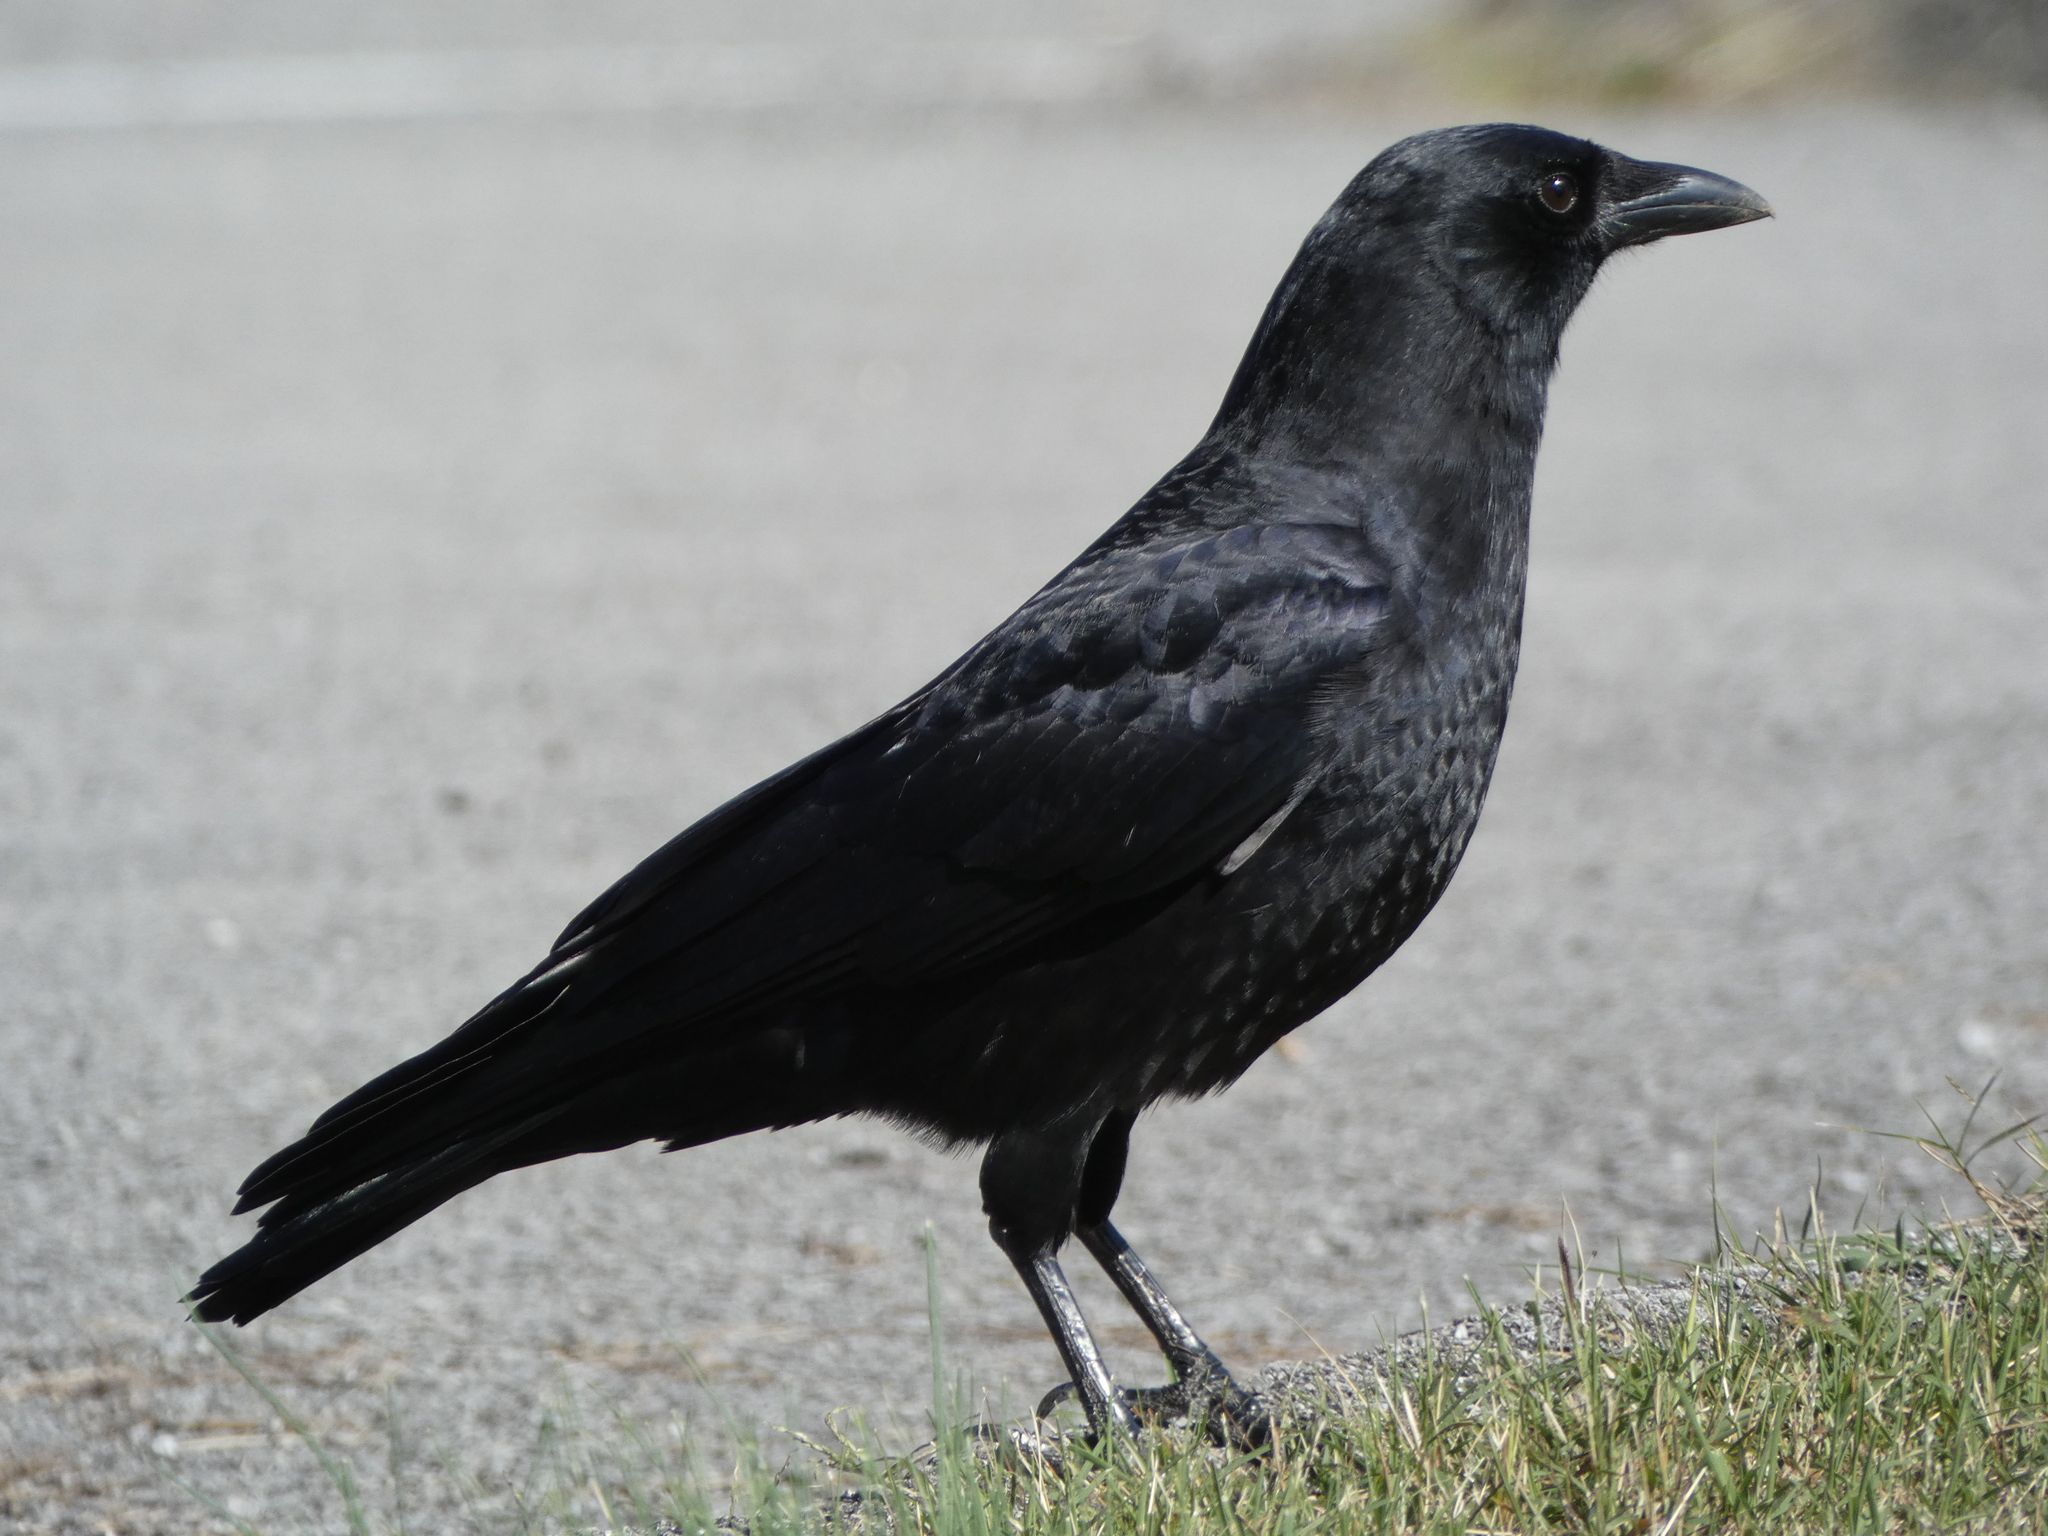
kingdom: Animalia
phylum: Chordata
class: Aves
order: Passeriformes
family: Corvidae
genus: Corvus
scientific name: Corvus brachyrhynchos
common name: American crow
